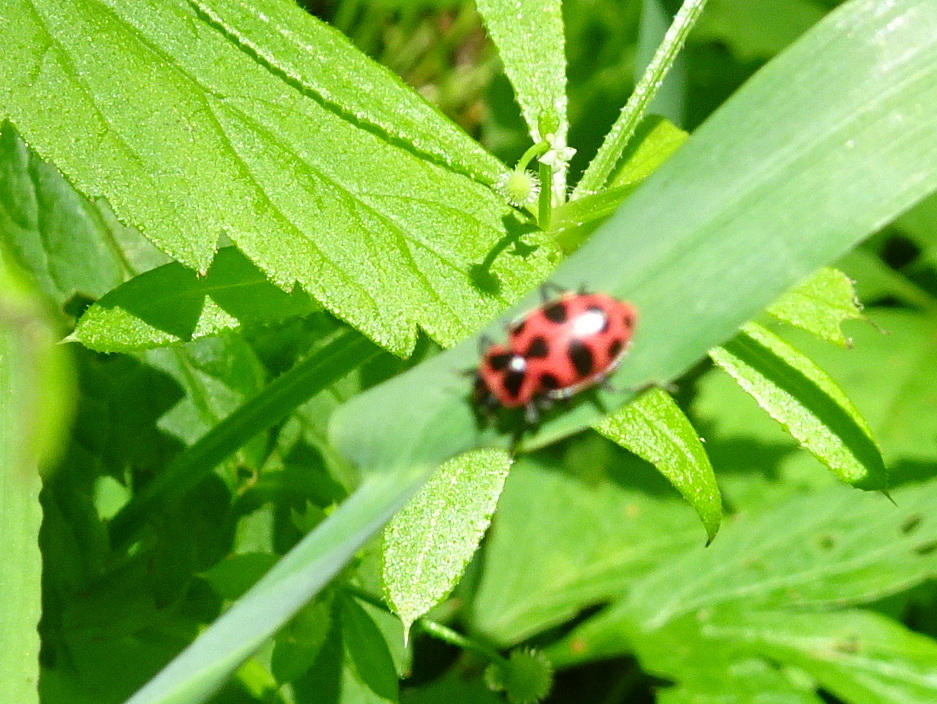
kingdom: Animalia
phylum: Arthropoda
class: Insecta
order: Coleoptera
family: Coccinellidae
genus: Coleomegilla
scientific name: Coleomegilla maculata
